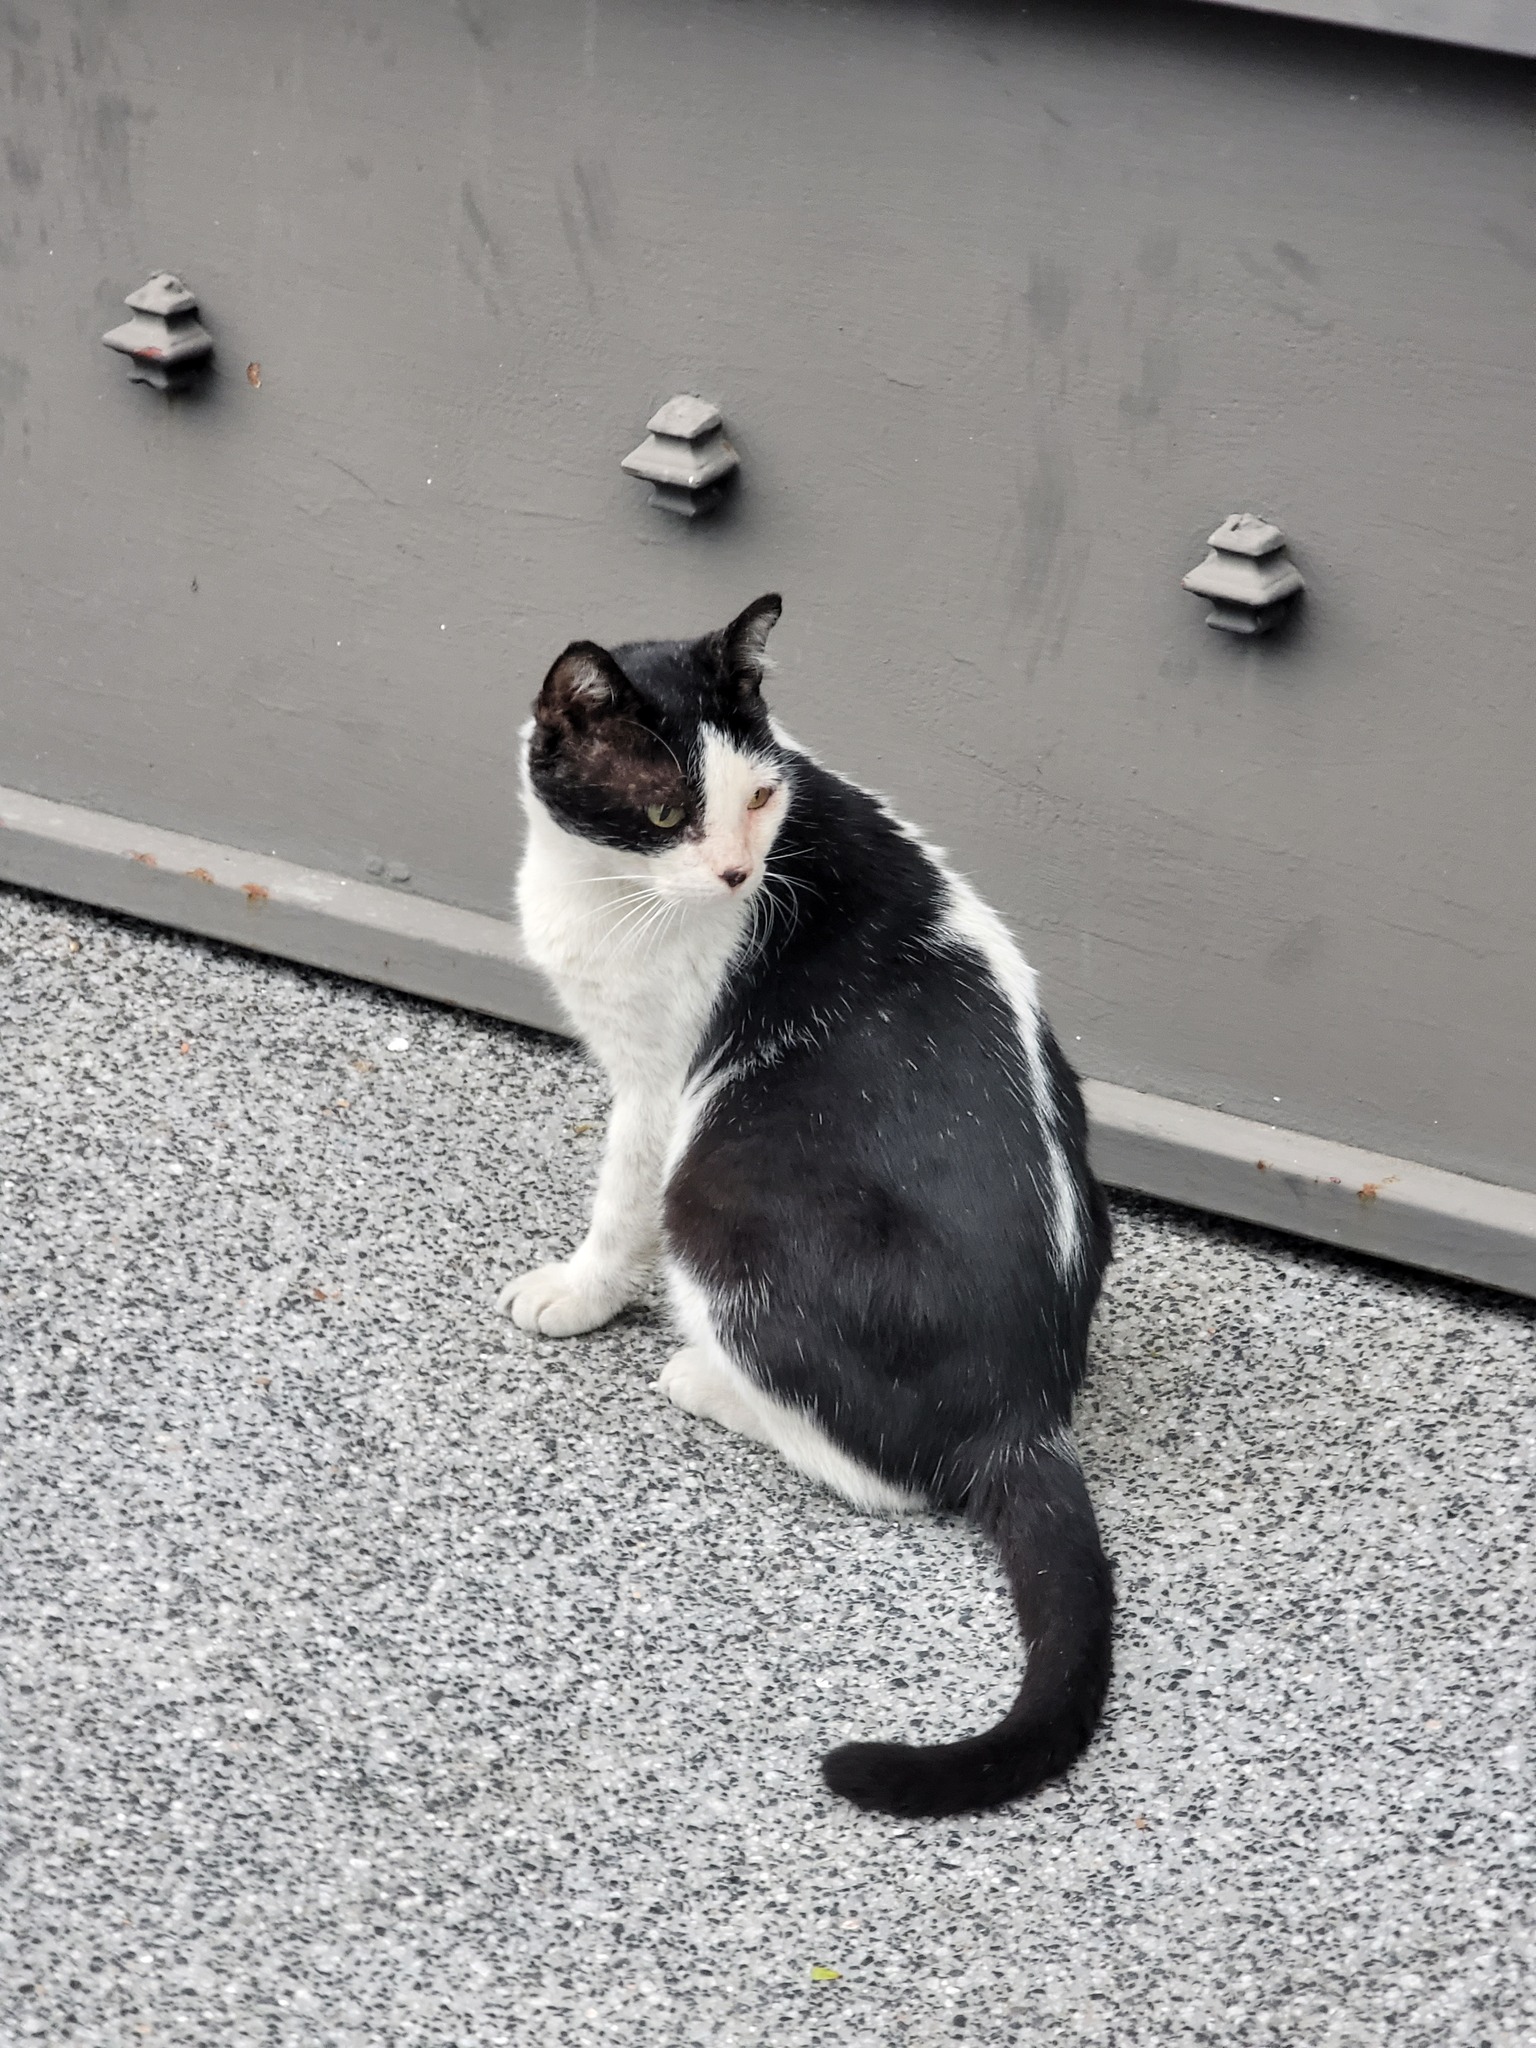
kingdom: Animalia
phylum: Chordata
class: Mammalia
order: Carnivora
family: Felidae
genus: Felis
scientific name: Felis catus
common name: Domestic cat
